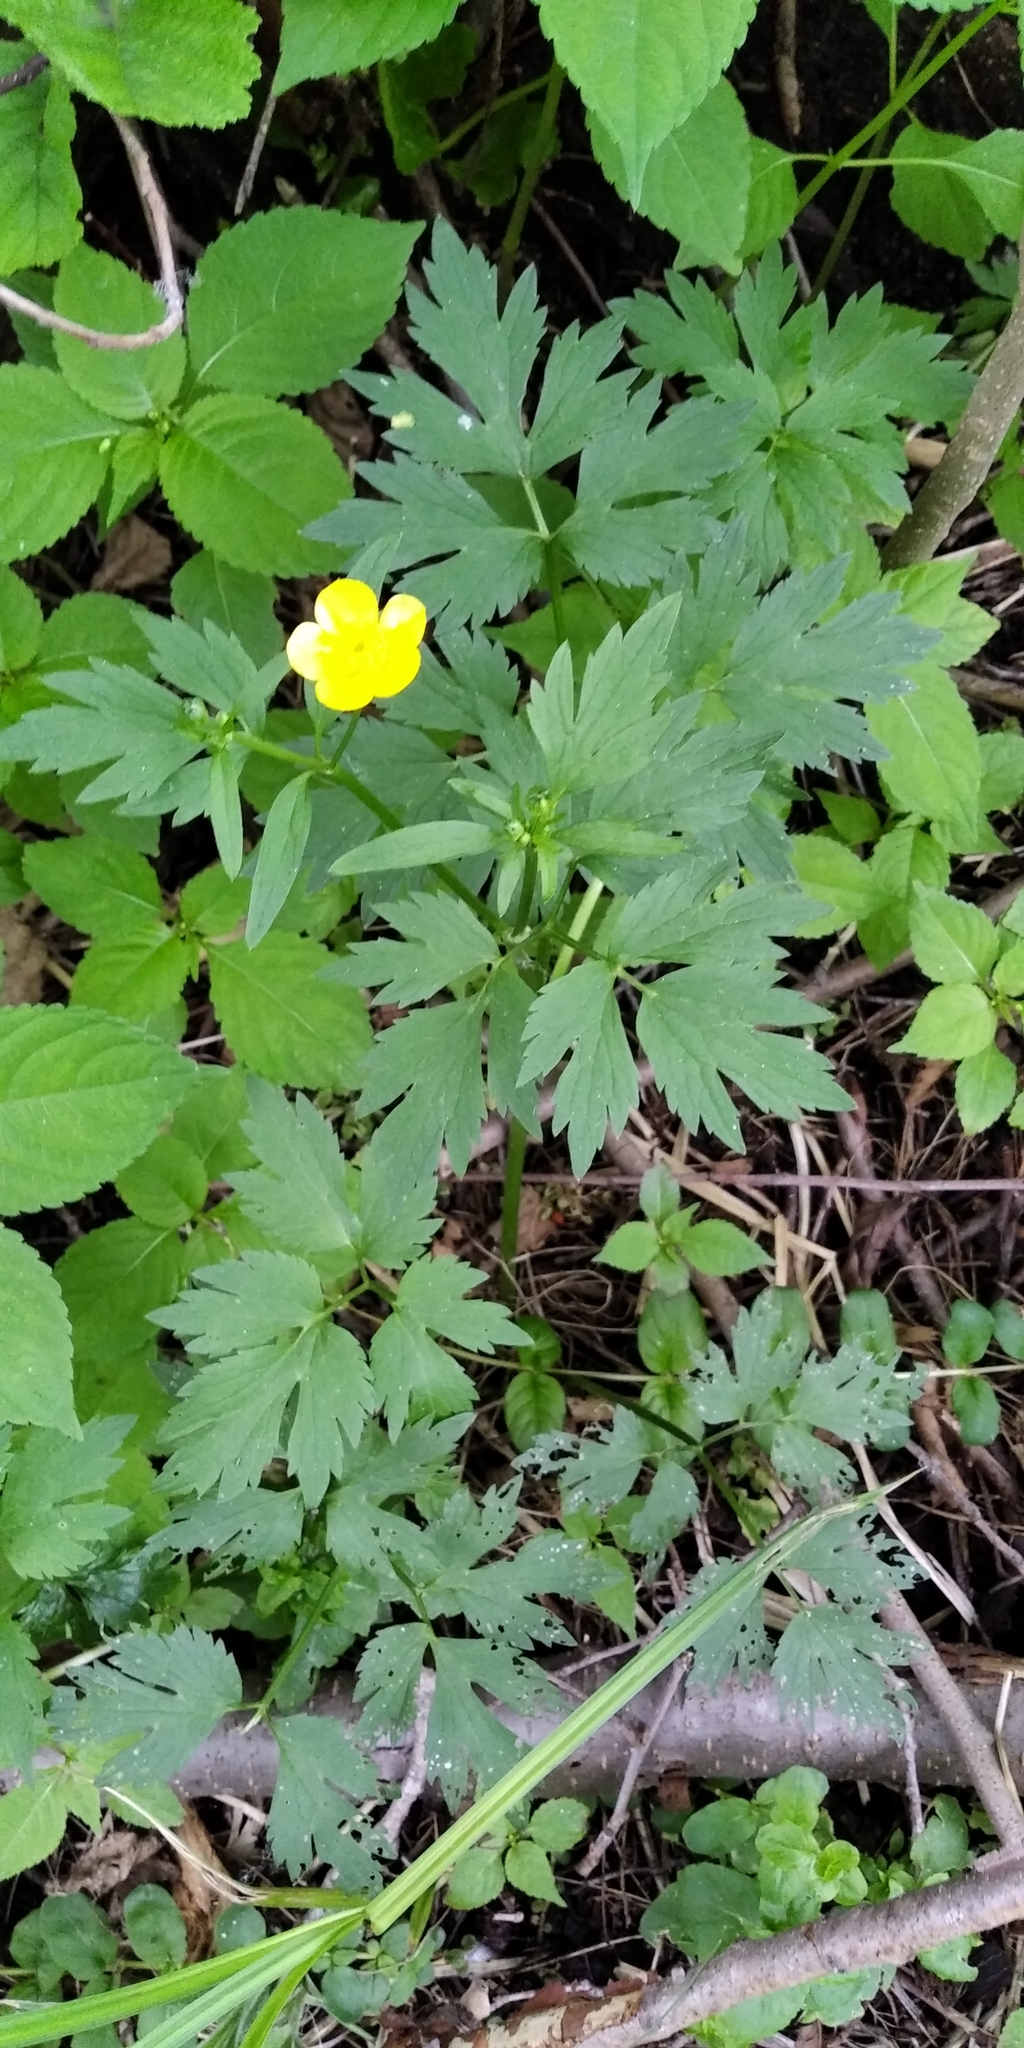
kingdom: Plantae
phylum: Tracheophyta
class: Magnoliopsida
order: Ranunculales
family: Ranunculaceae
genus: Ranunculus
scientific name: Ranunculus repens
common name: Creeping buttercup
